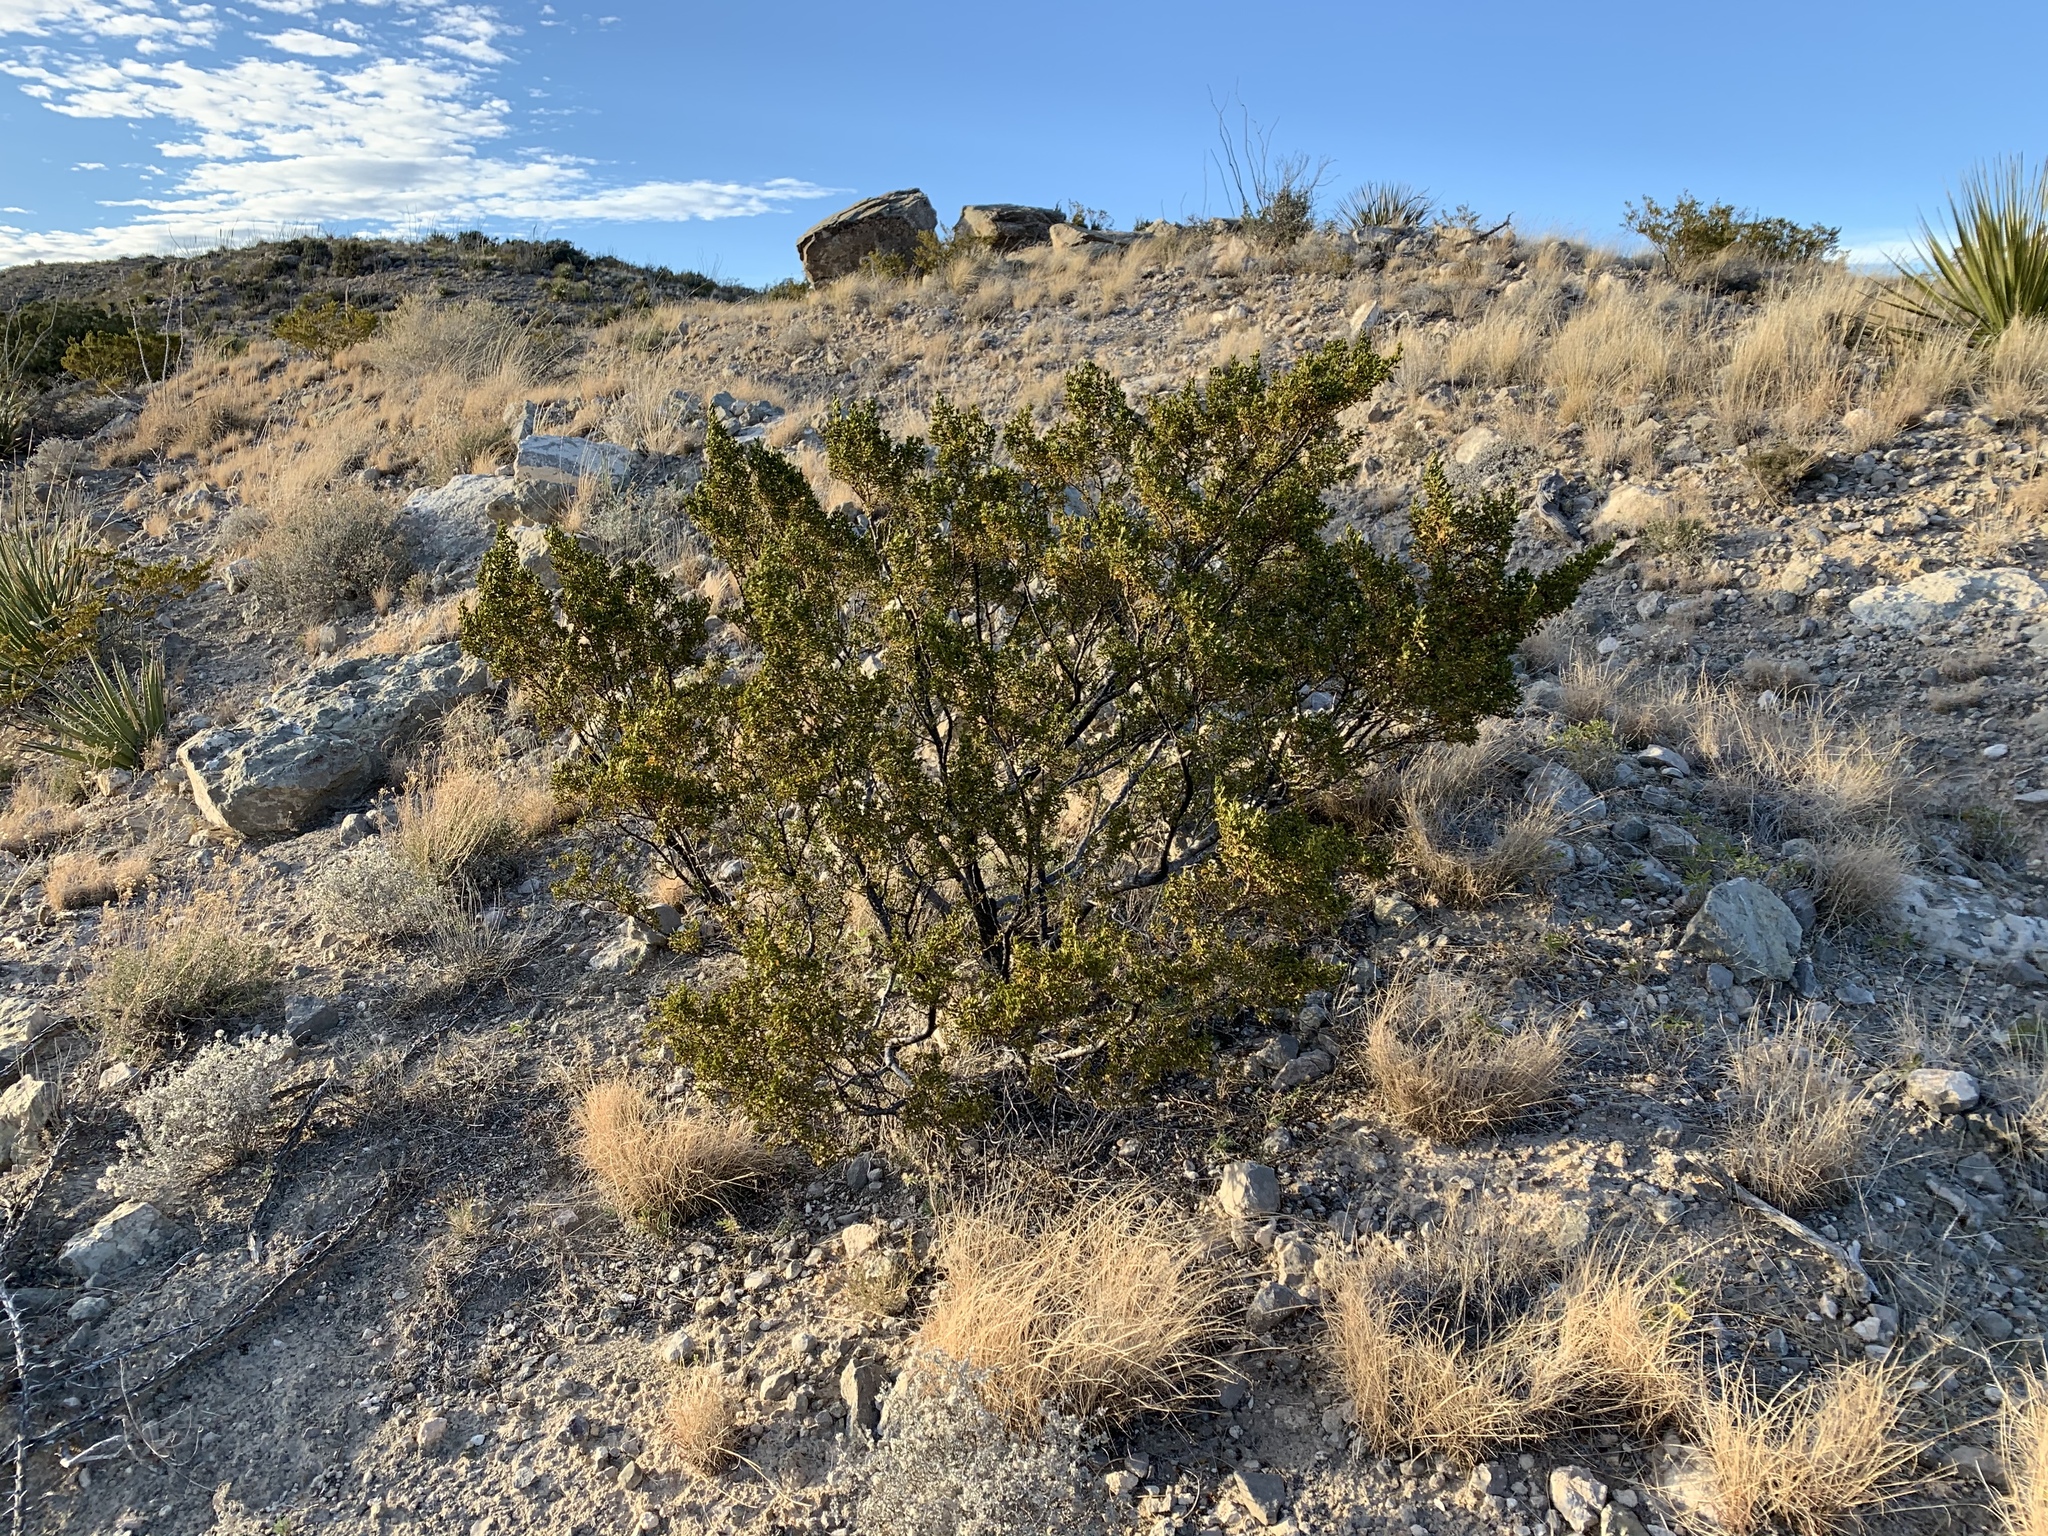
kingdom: Plantae
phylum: Tracheophyta
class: Magnoliopsida
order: Zygophyllales
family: Zygophyllaceae
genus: Larrea
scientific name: Larrea tridentata
